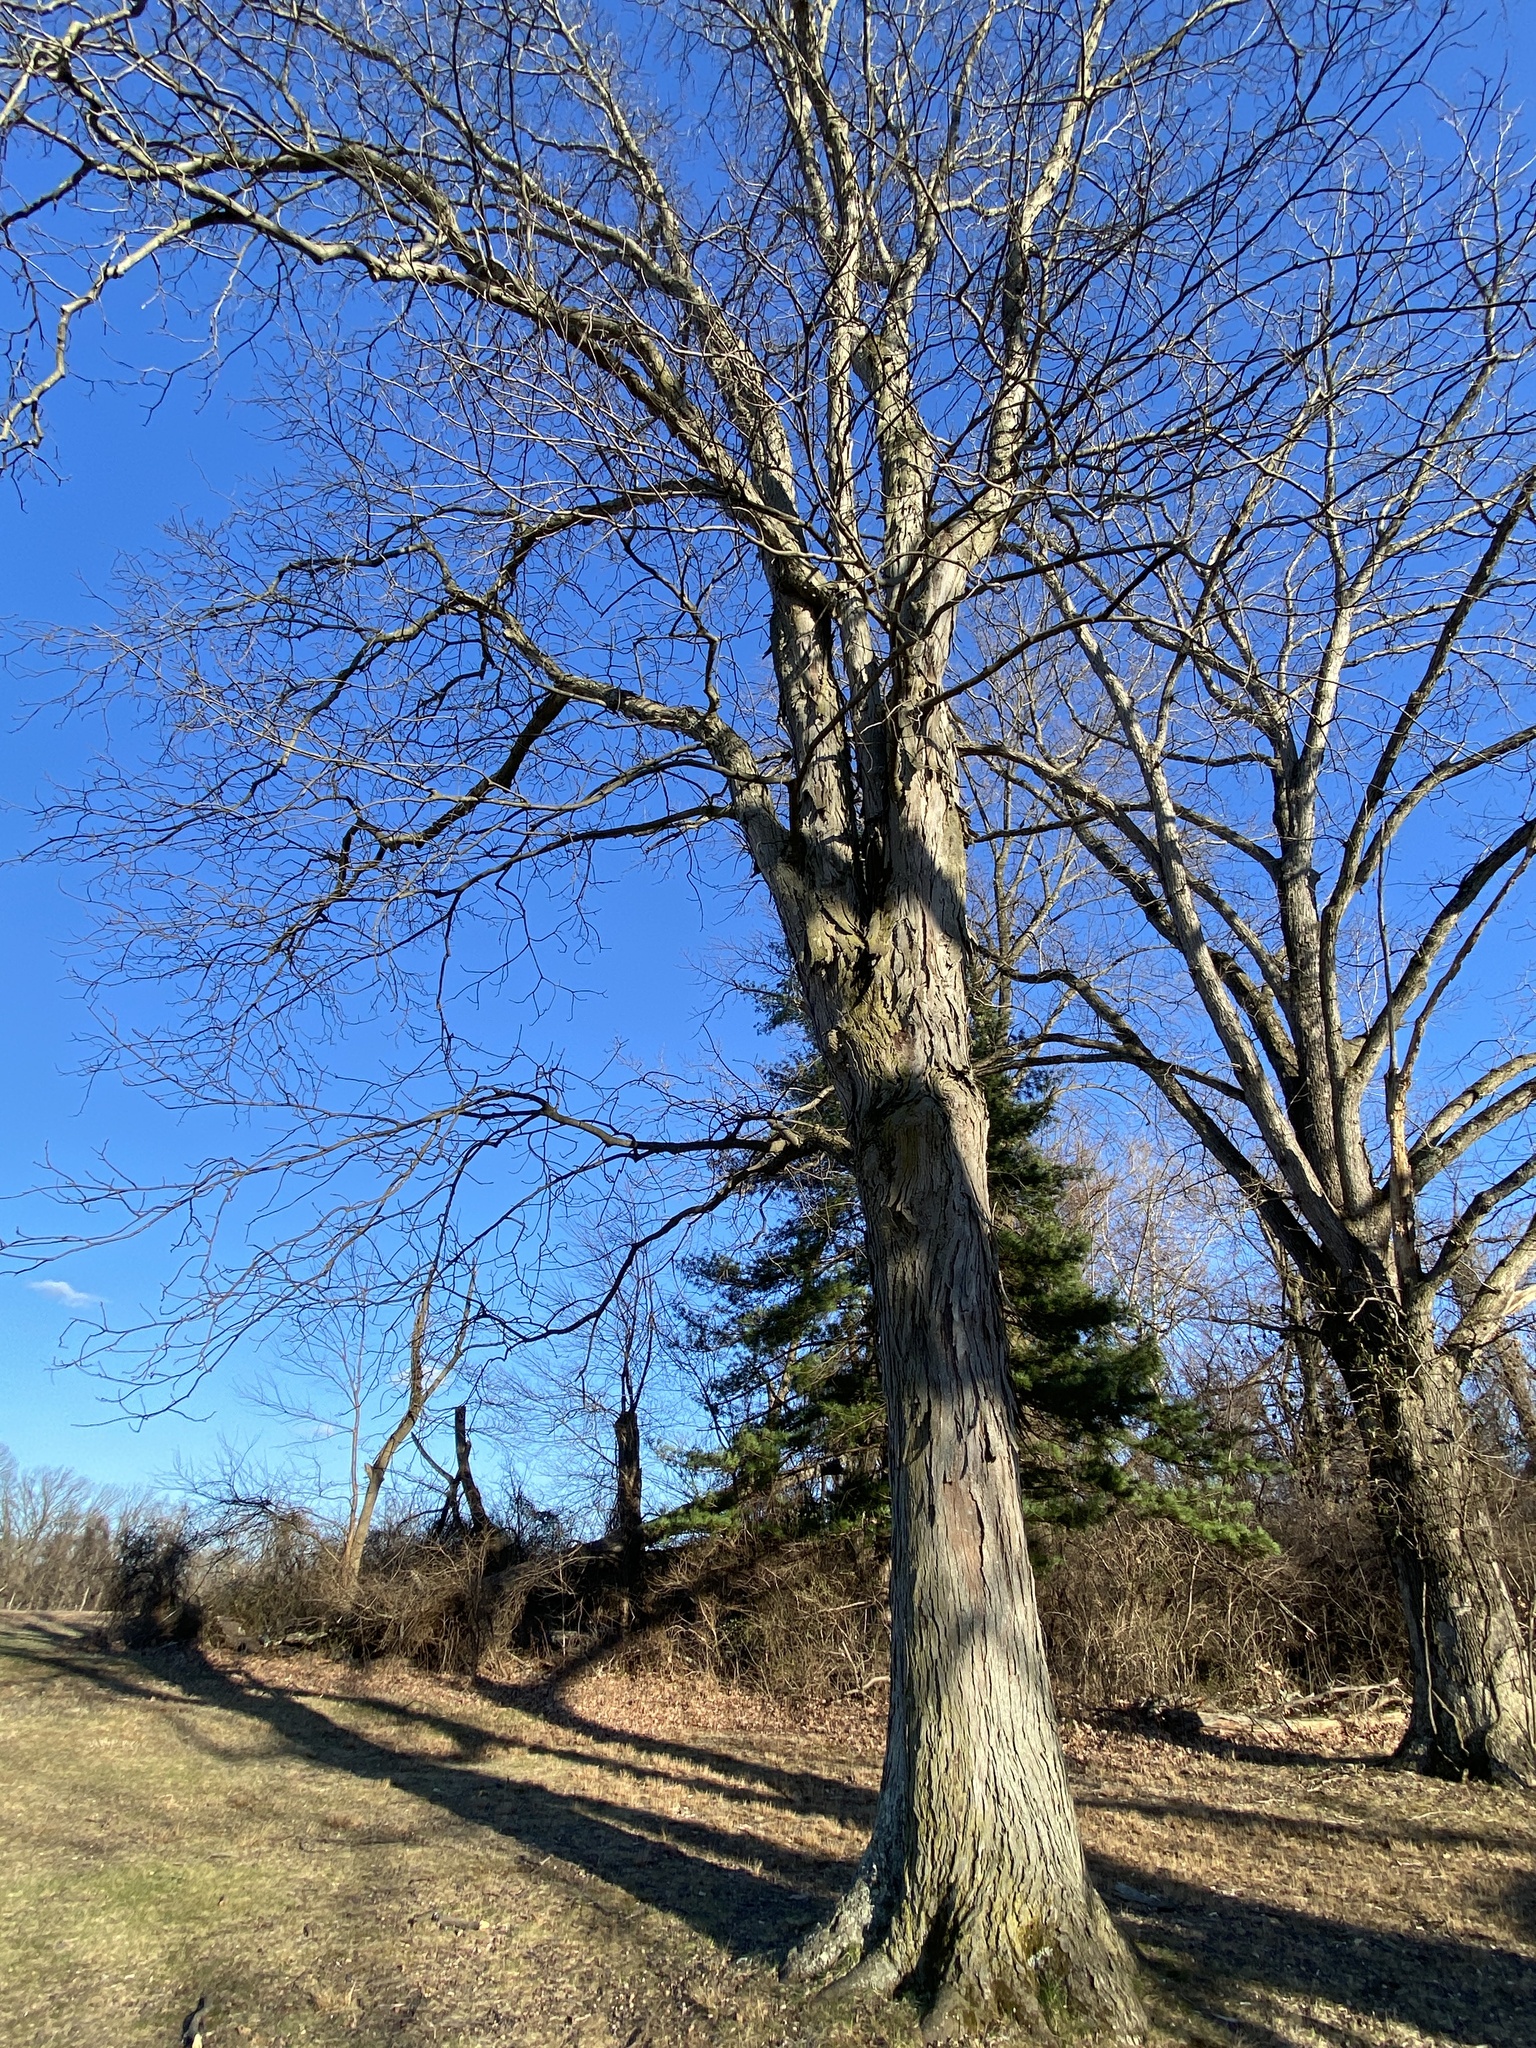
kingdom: Plantae
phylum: Tracheophyta
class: Magnoliopsida
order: Fagales
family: Juglandaceae
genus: Carya
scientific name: Carya ovata
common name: Shagbark hickory
